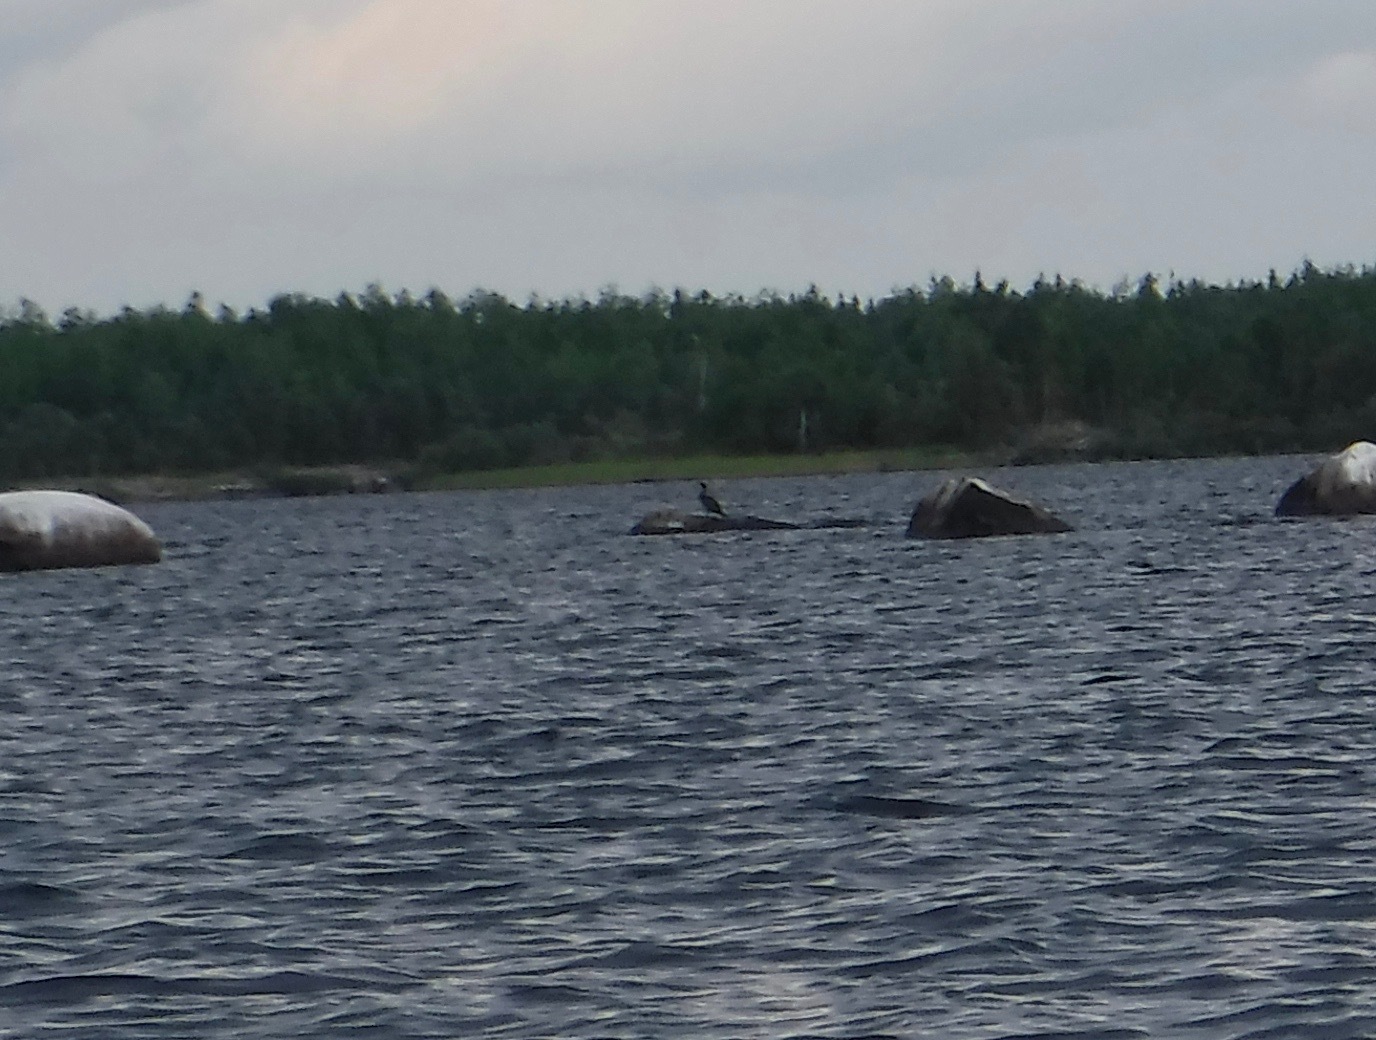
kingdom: Animalia
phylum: Chordata
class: Aves
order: Suliformes
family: Phalacrocoracidae
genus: Phalacrocorax
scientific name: Phalacrocorax auritus
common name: Double-crested cormorant
